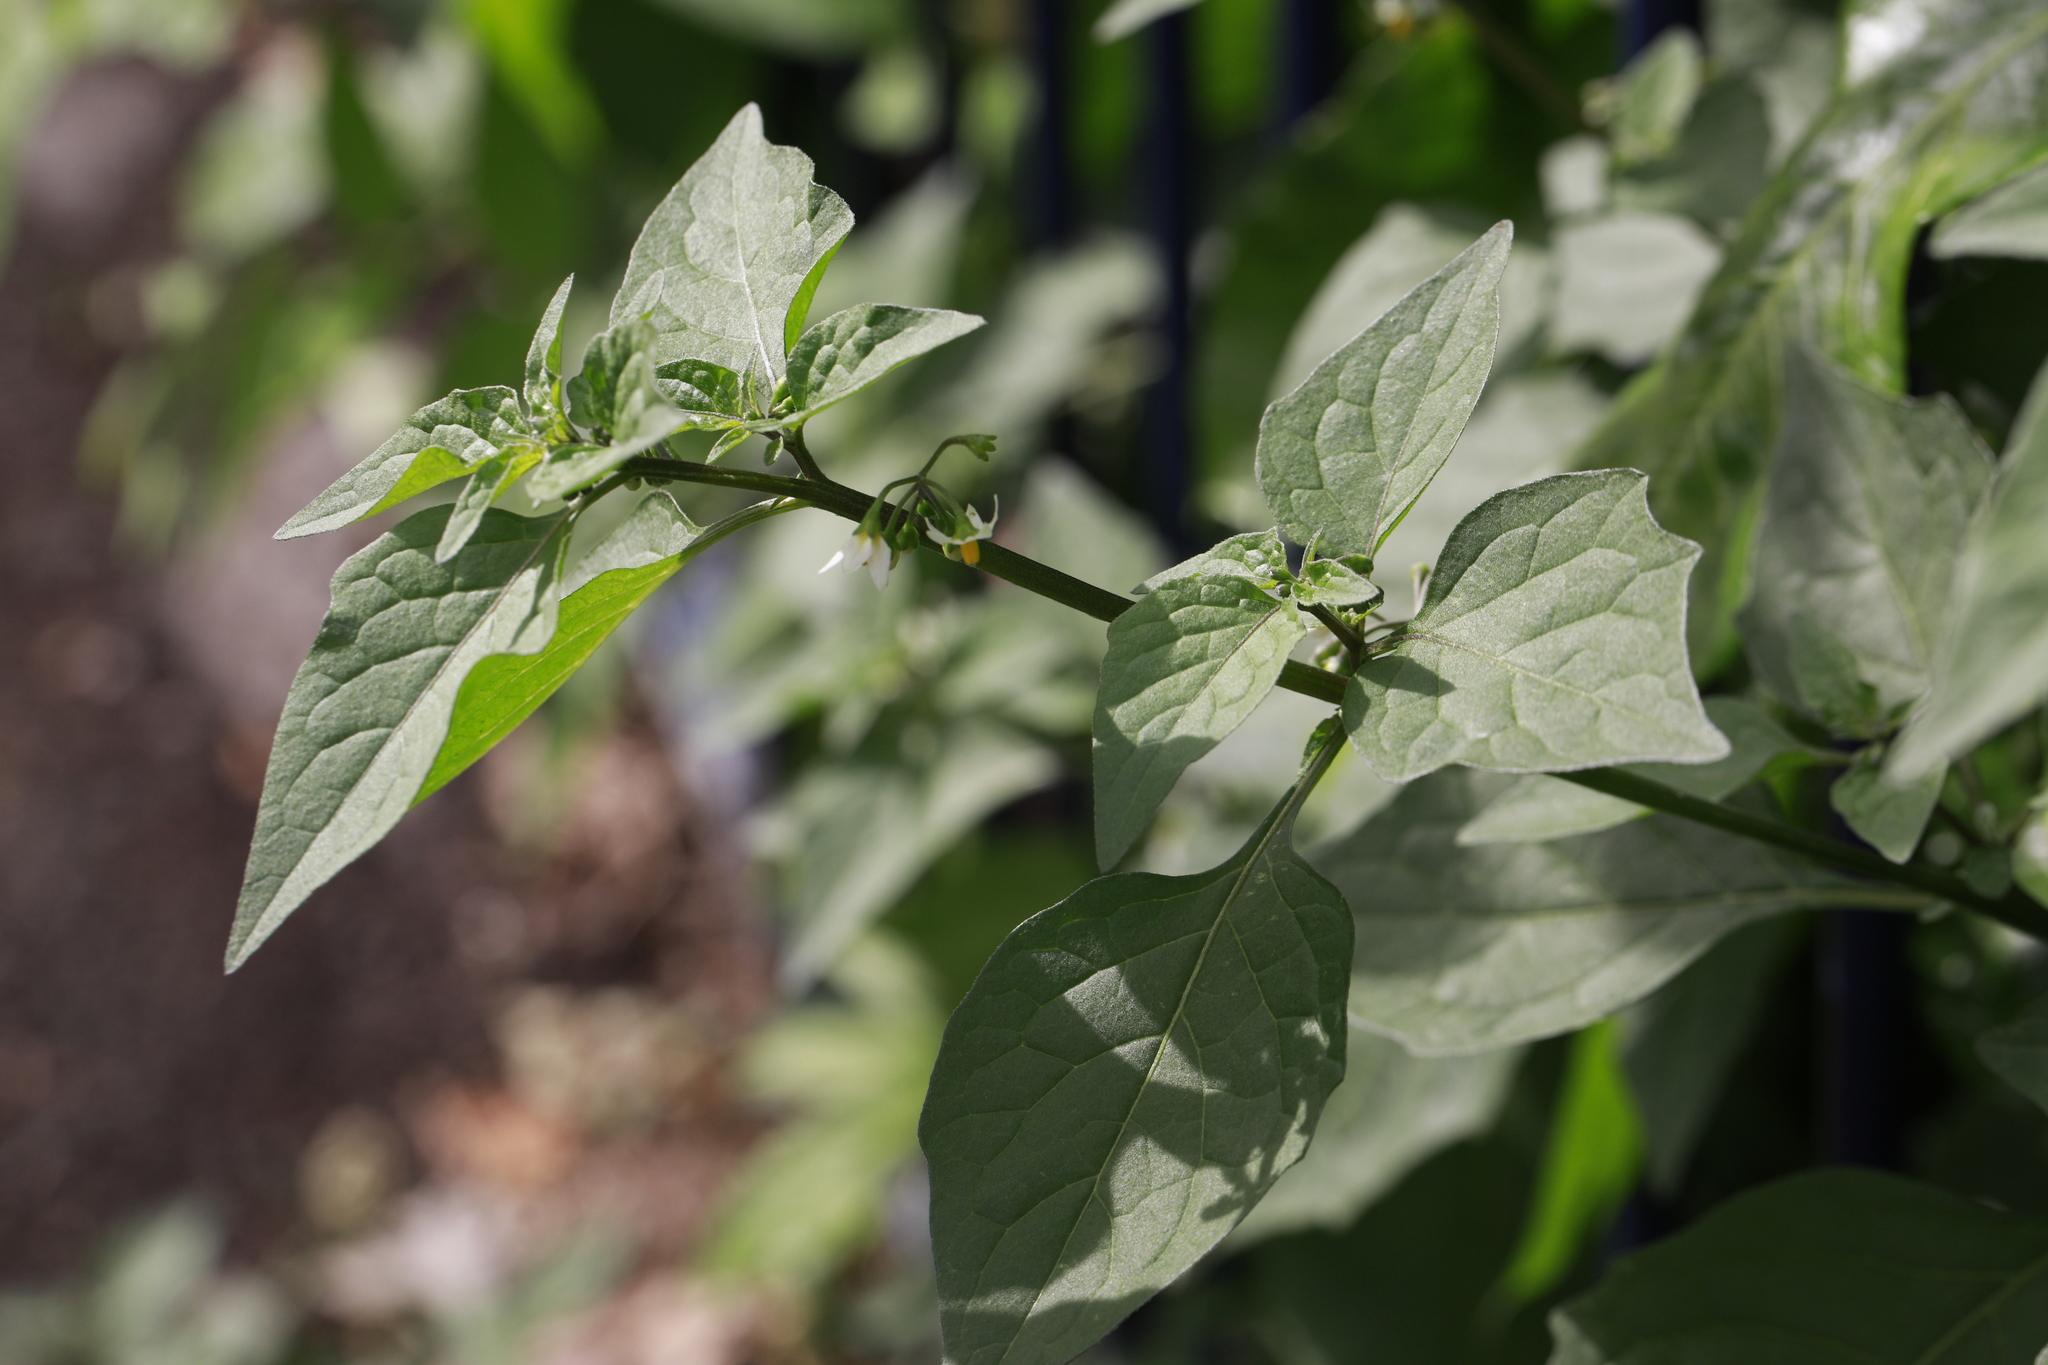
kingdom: Plantae
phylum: Tracheophyta
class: Magnoliopsida
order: Solanales
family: Solanaceae
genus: Solanum
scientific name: Solanum nigrum
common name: Black nightshade
